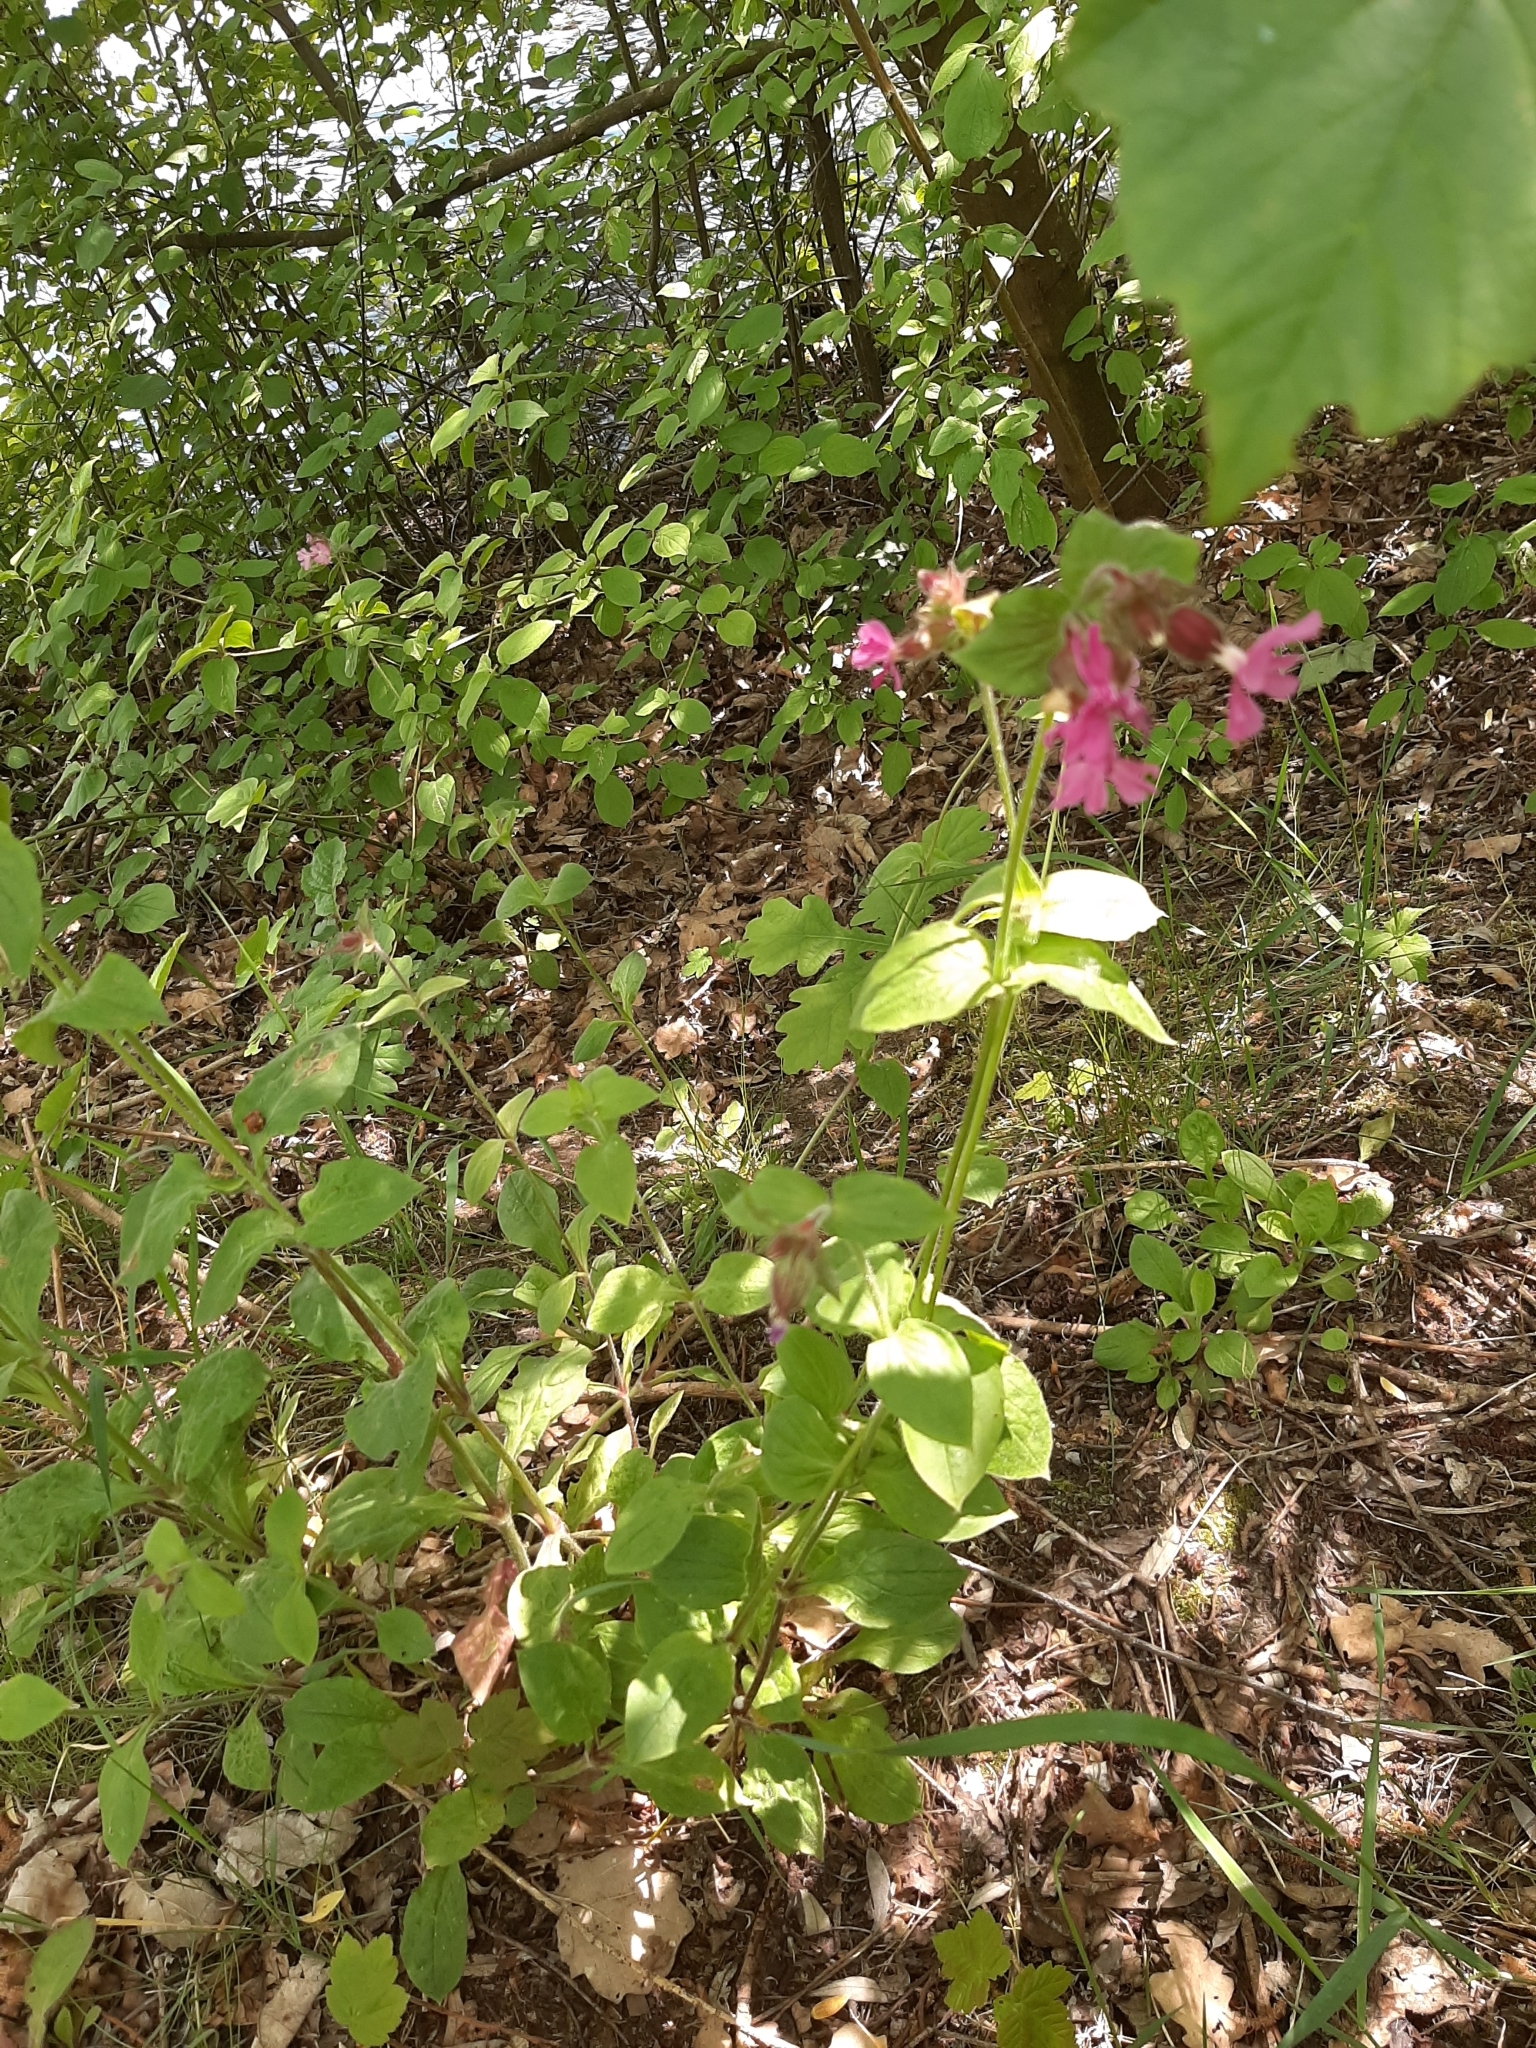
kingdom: Plantae
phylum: Tracheophyta
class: Magnoliopsida
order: Caryophyllales
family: Caryophyllaceae
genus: Silene
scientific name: Silene dioica
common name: Red campion
